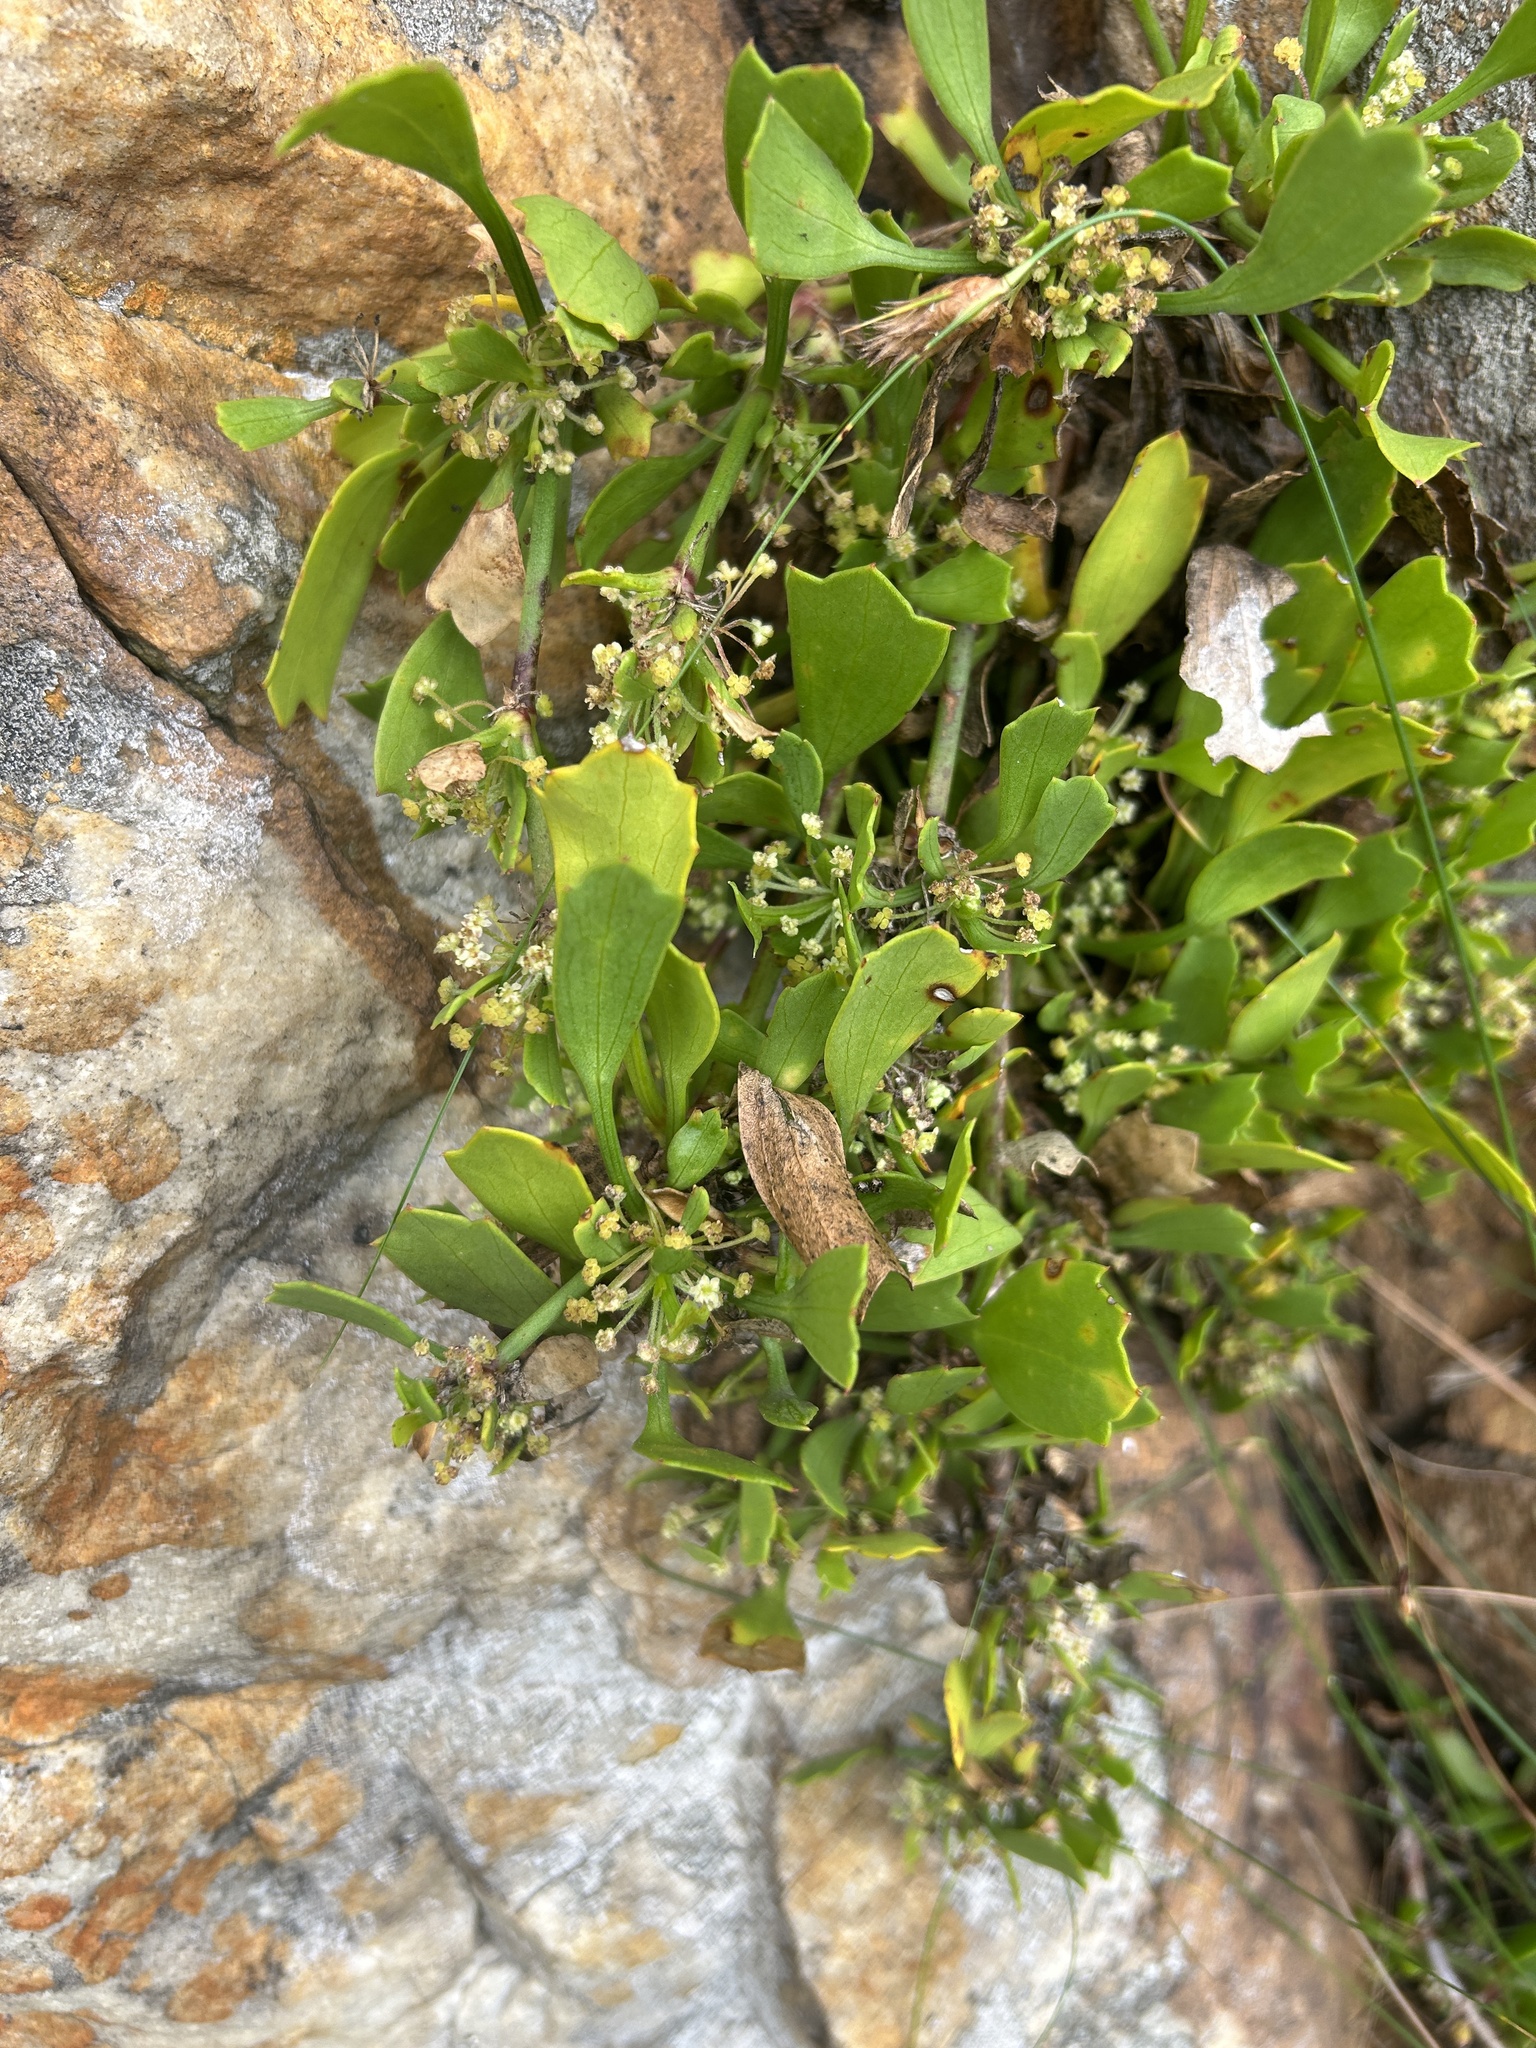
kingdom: Plantae
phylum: Tracheophyta
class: Magnoliopsida
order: Apiales
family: Apiaceae
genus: Centella
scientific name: Centella triloba
